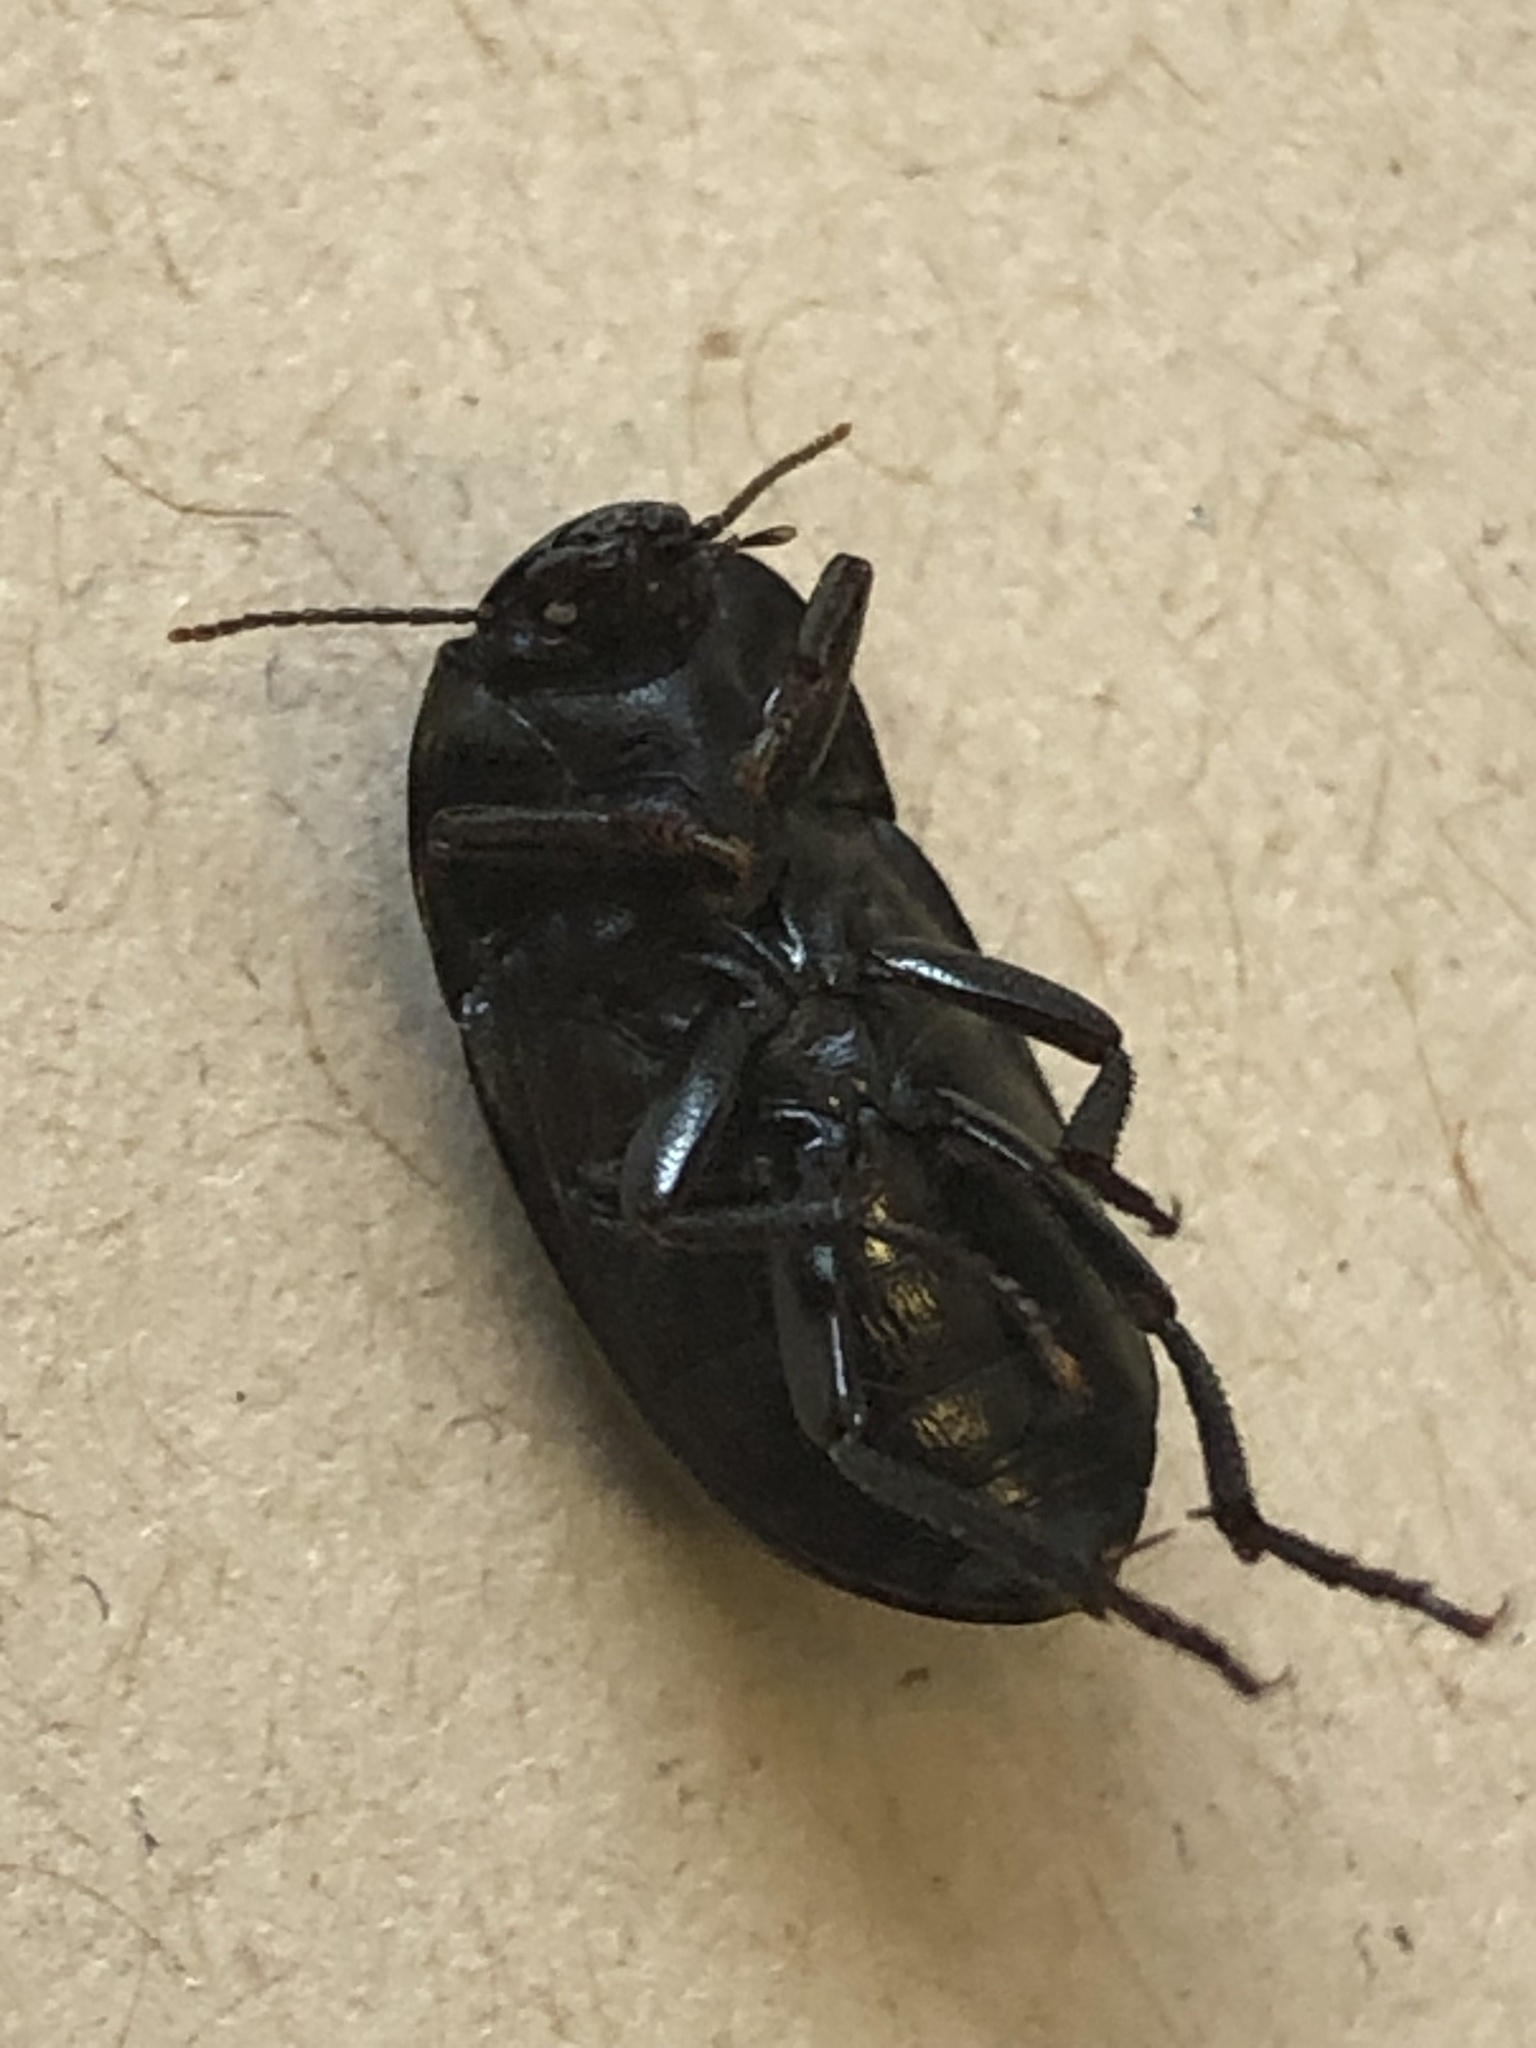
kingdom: Animalia
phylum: Arthropoda
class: Insecta
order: Coleoptera
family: Tenebrionidae
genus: Coniontis
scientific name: Coniontis
